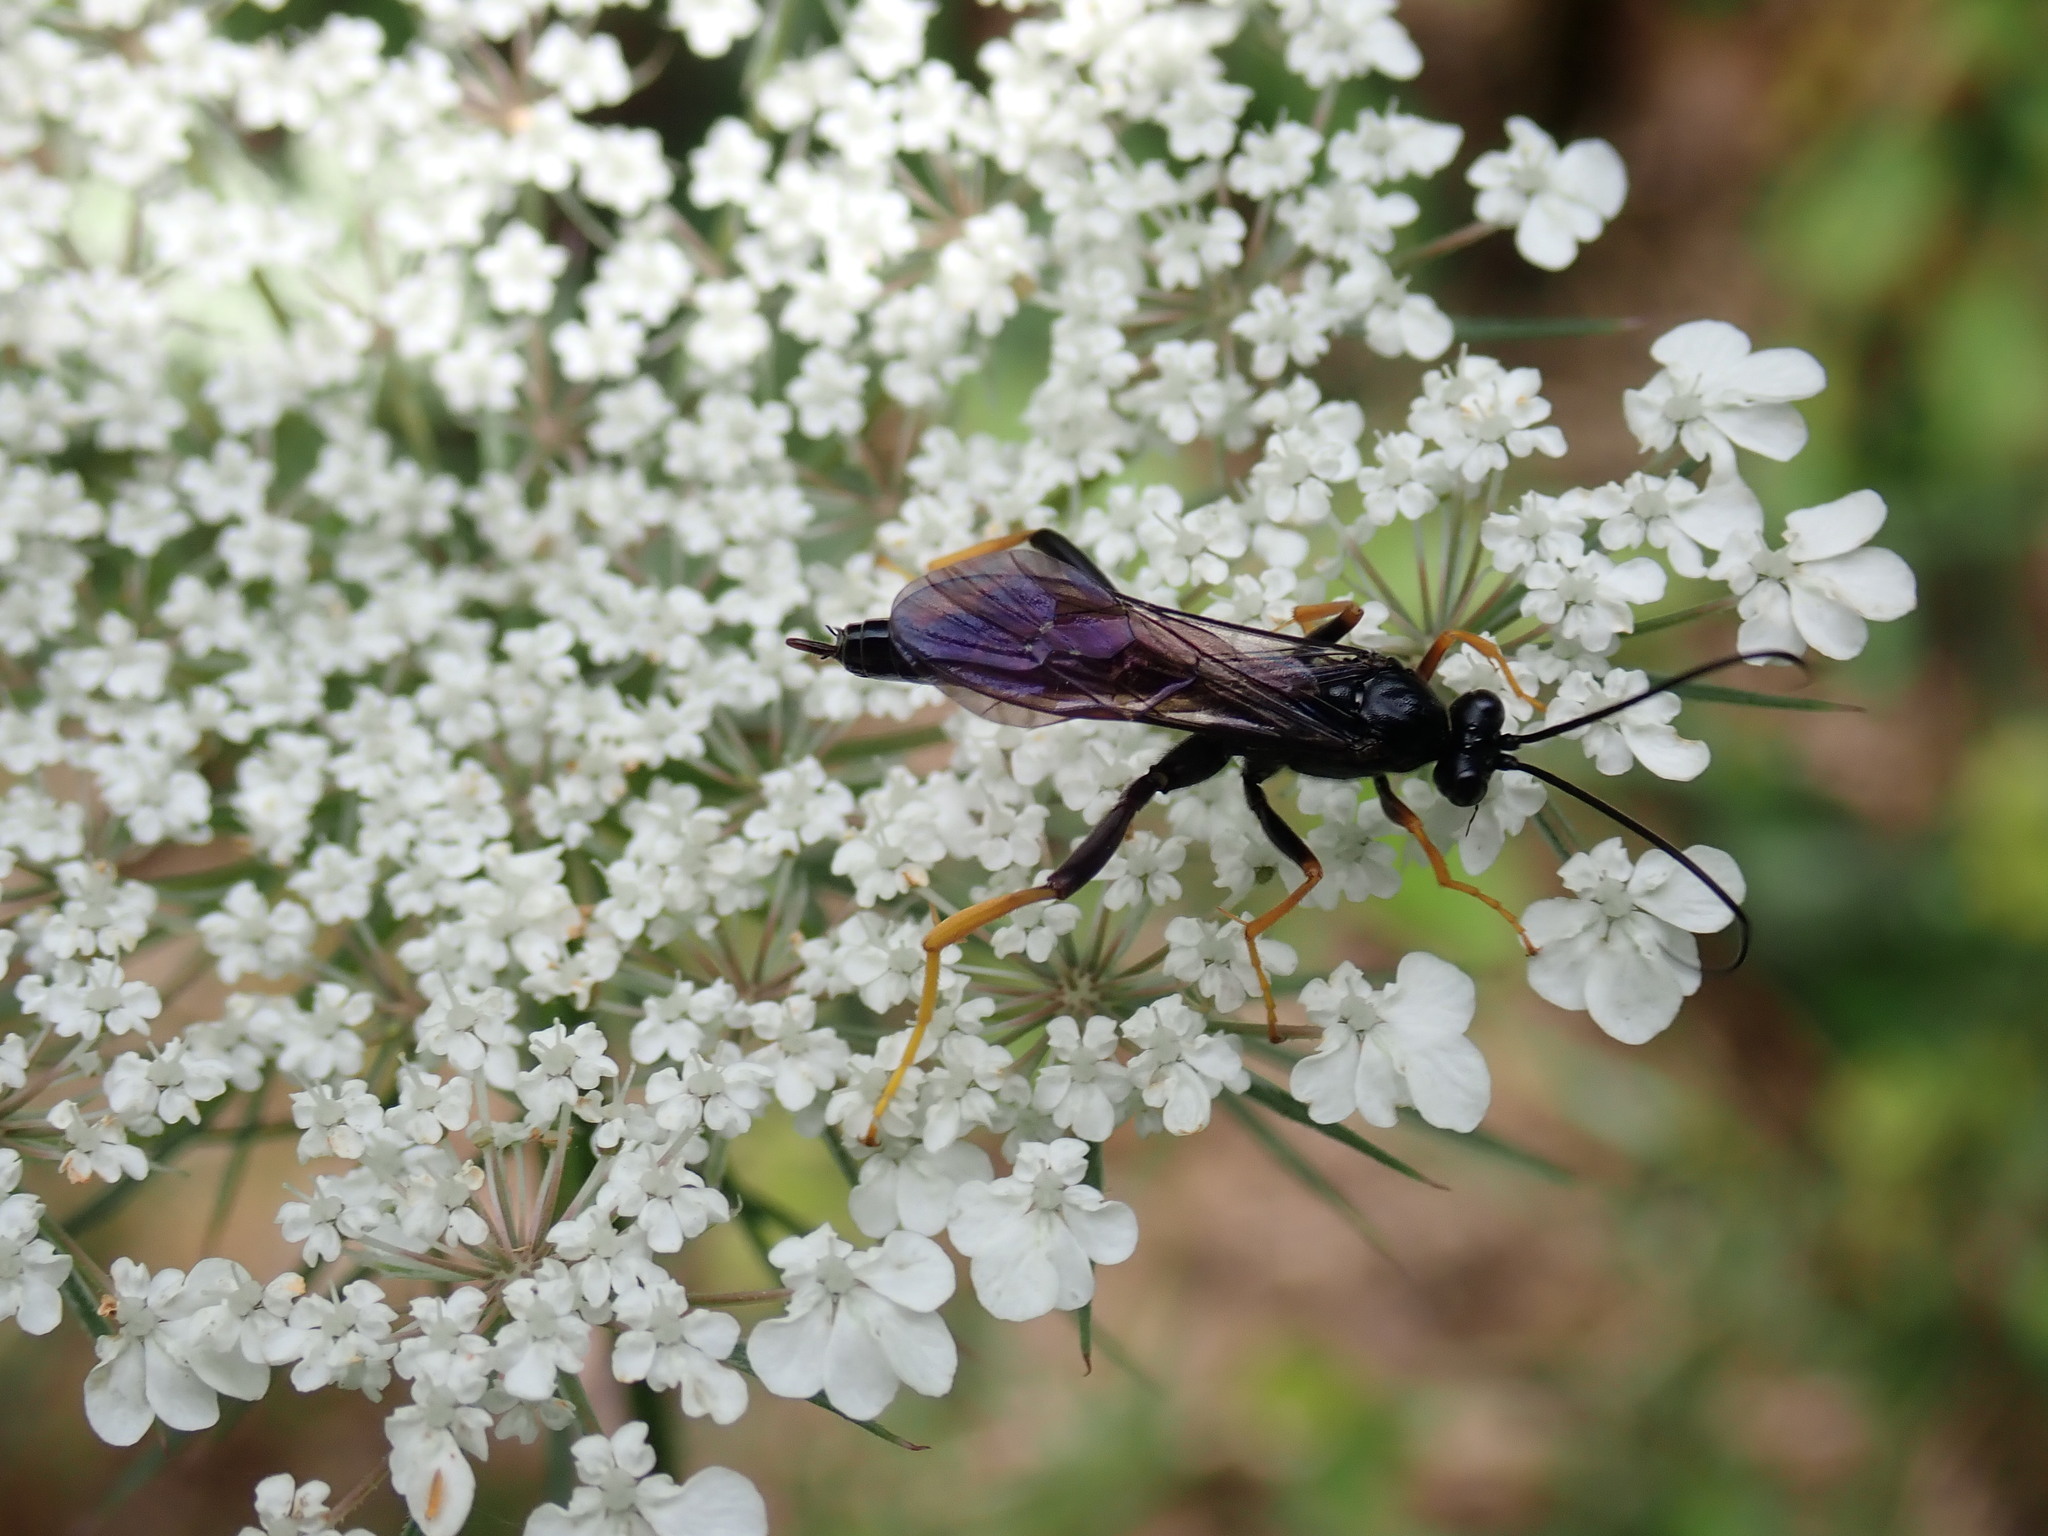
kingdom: Animalia
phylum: Arthropoda
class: Insecta
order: Hymenoptera
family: Ichneumonidae
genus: Exetastes
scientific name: Exetastes suaveolens
